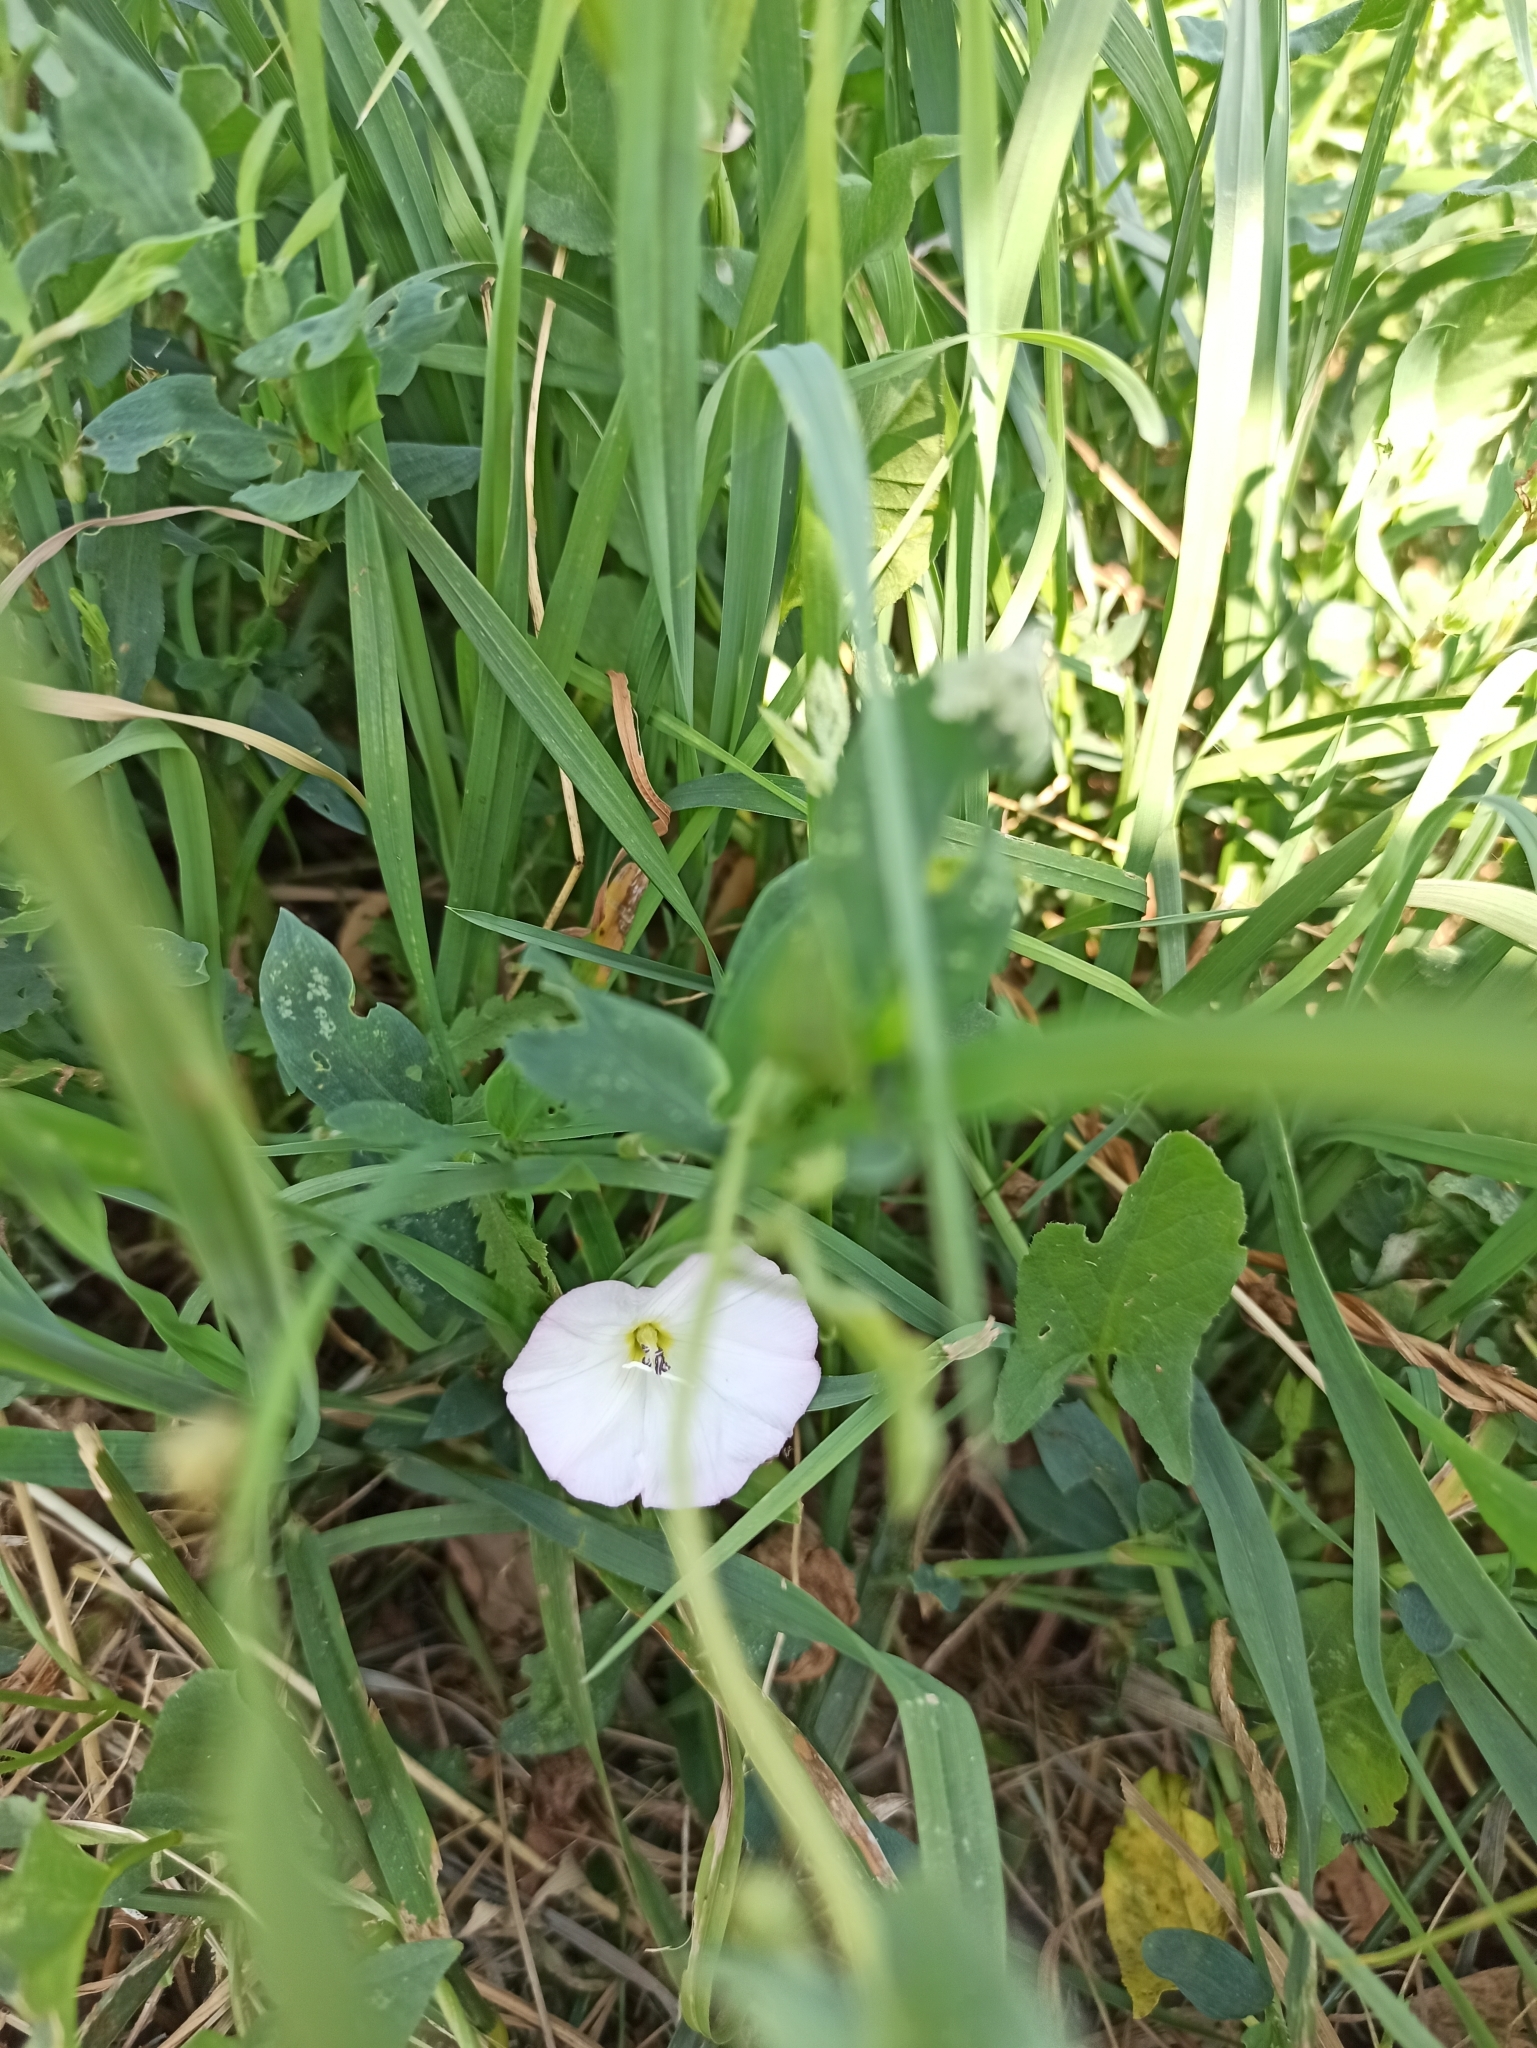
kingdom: Plantae
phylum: Tracheophyta
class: Magnoliopsida
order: Solanales
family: Convolvulaceae
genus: Convolvulus
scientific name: Convolvulus arvensis
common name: Field bindweed
